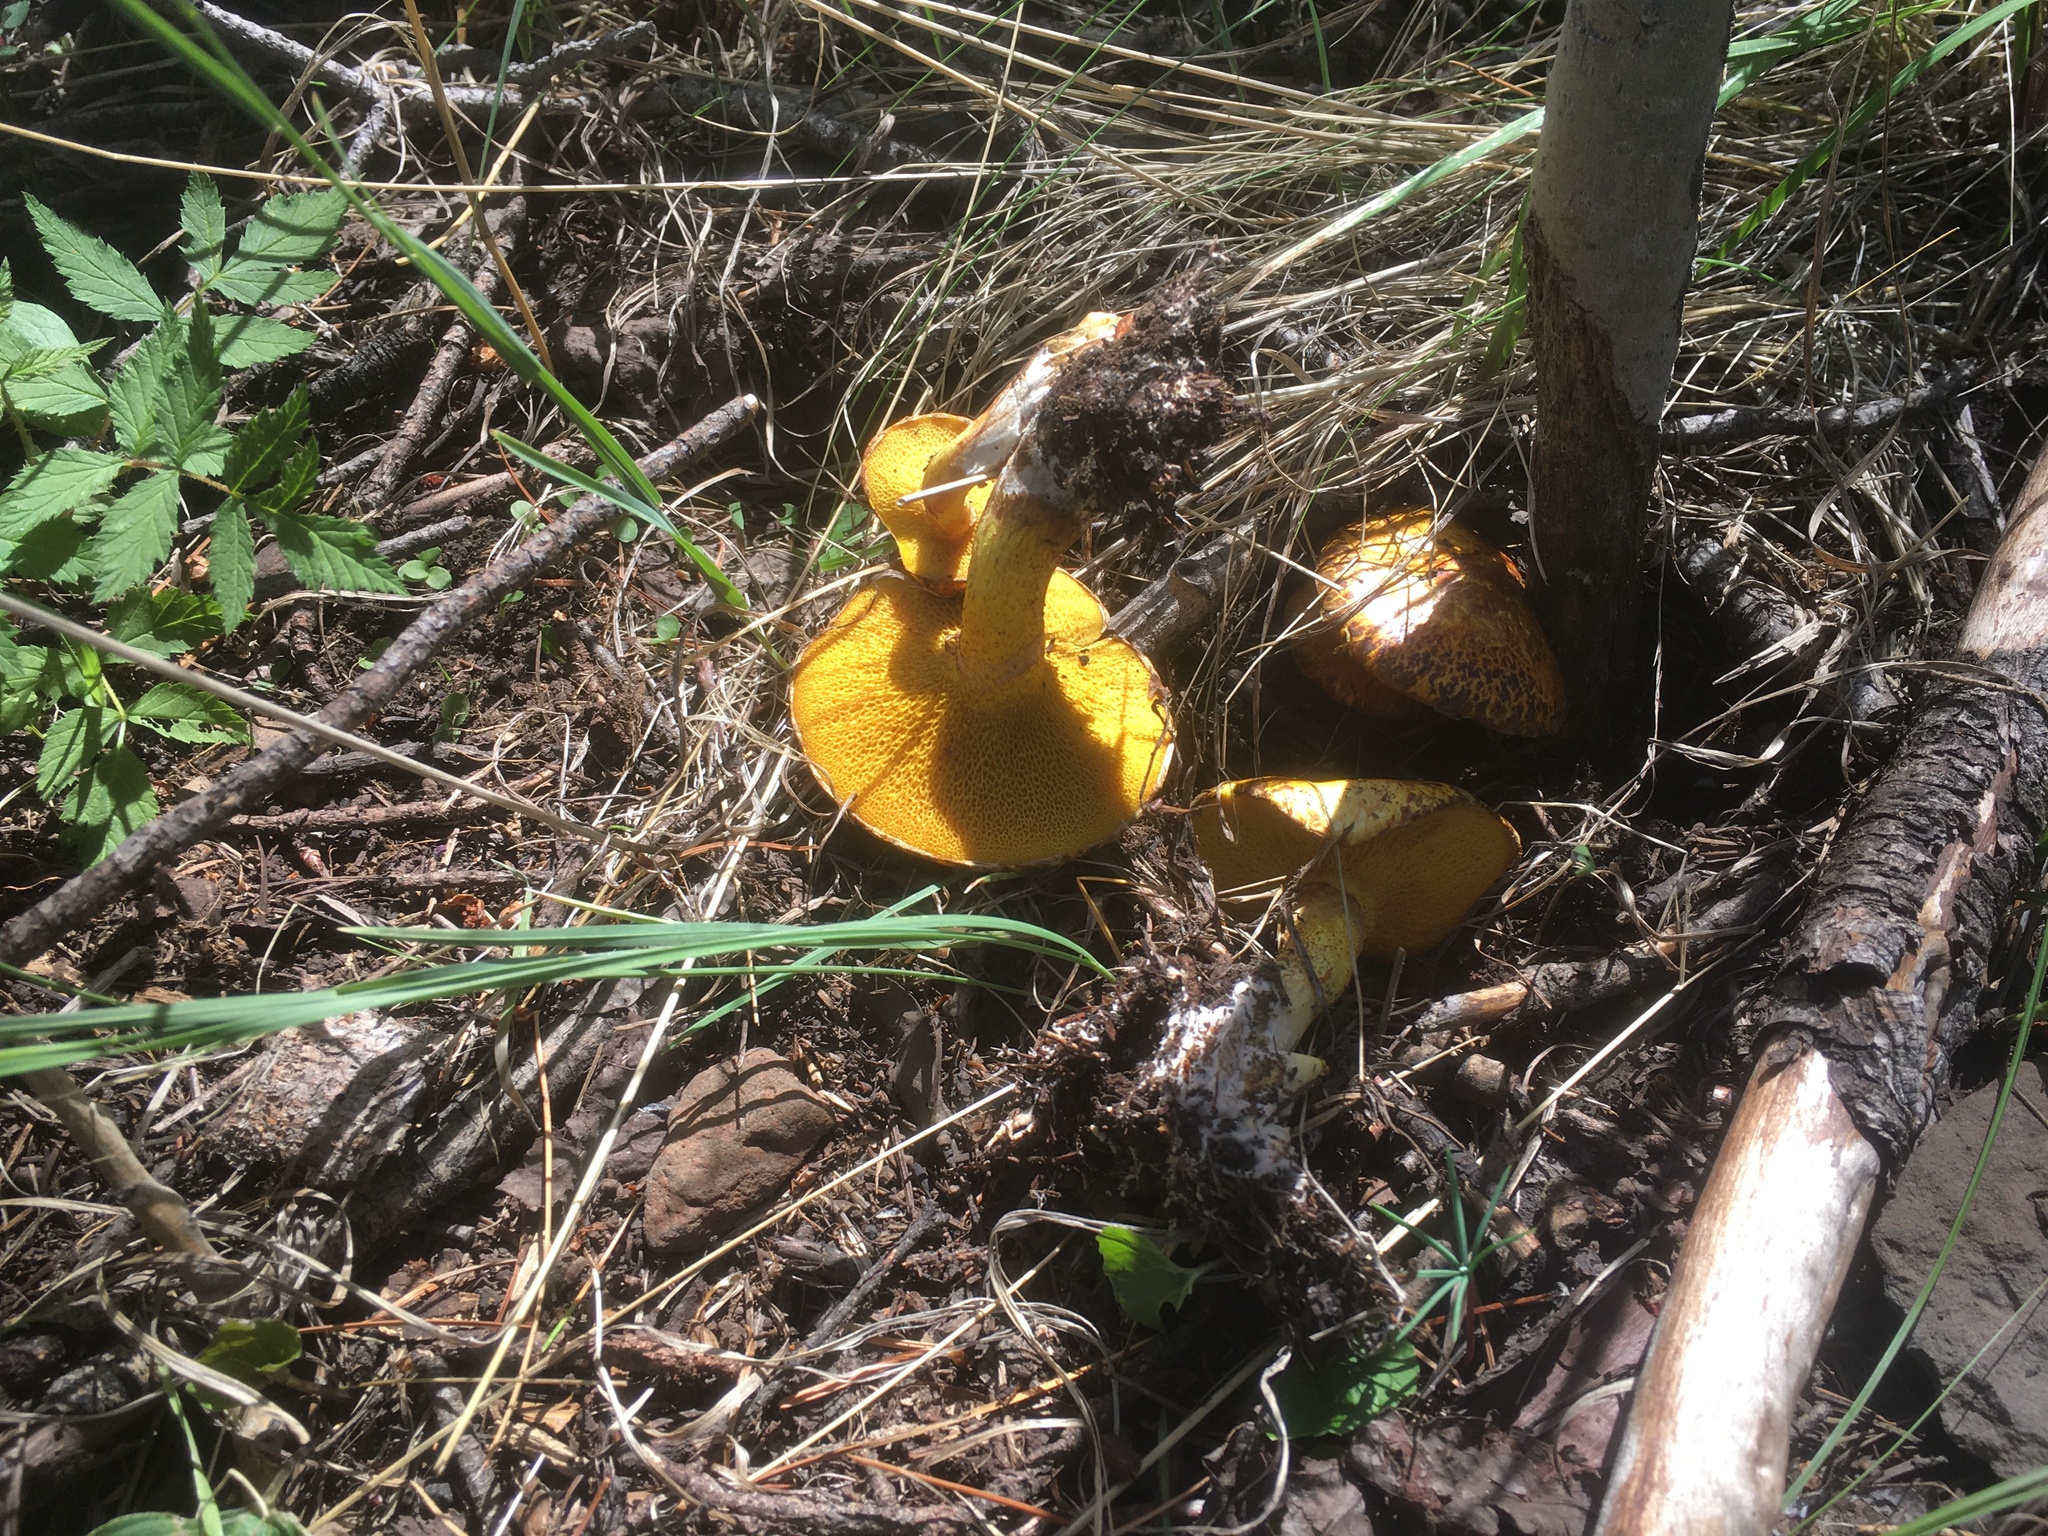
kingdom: Fungi
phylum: Basidiomycota
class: Agaricomycetes
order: Boletales
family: Suillaceae
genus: Suillus
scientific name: Suillus americanus
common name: Chicken fat mushroom
